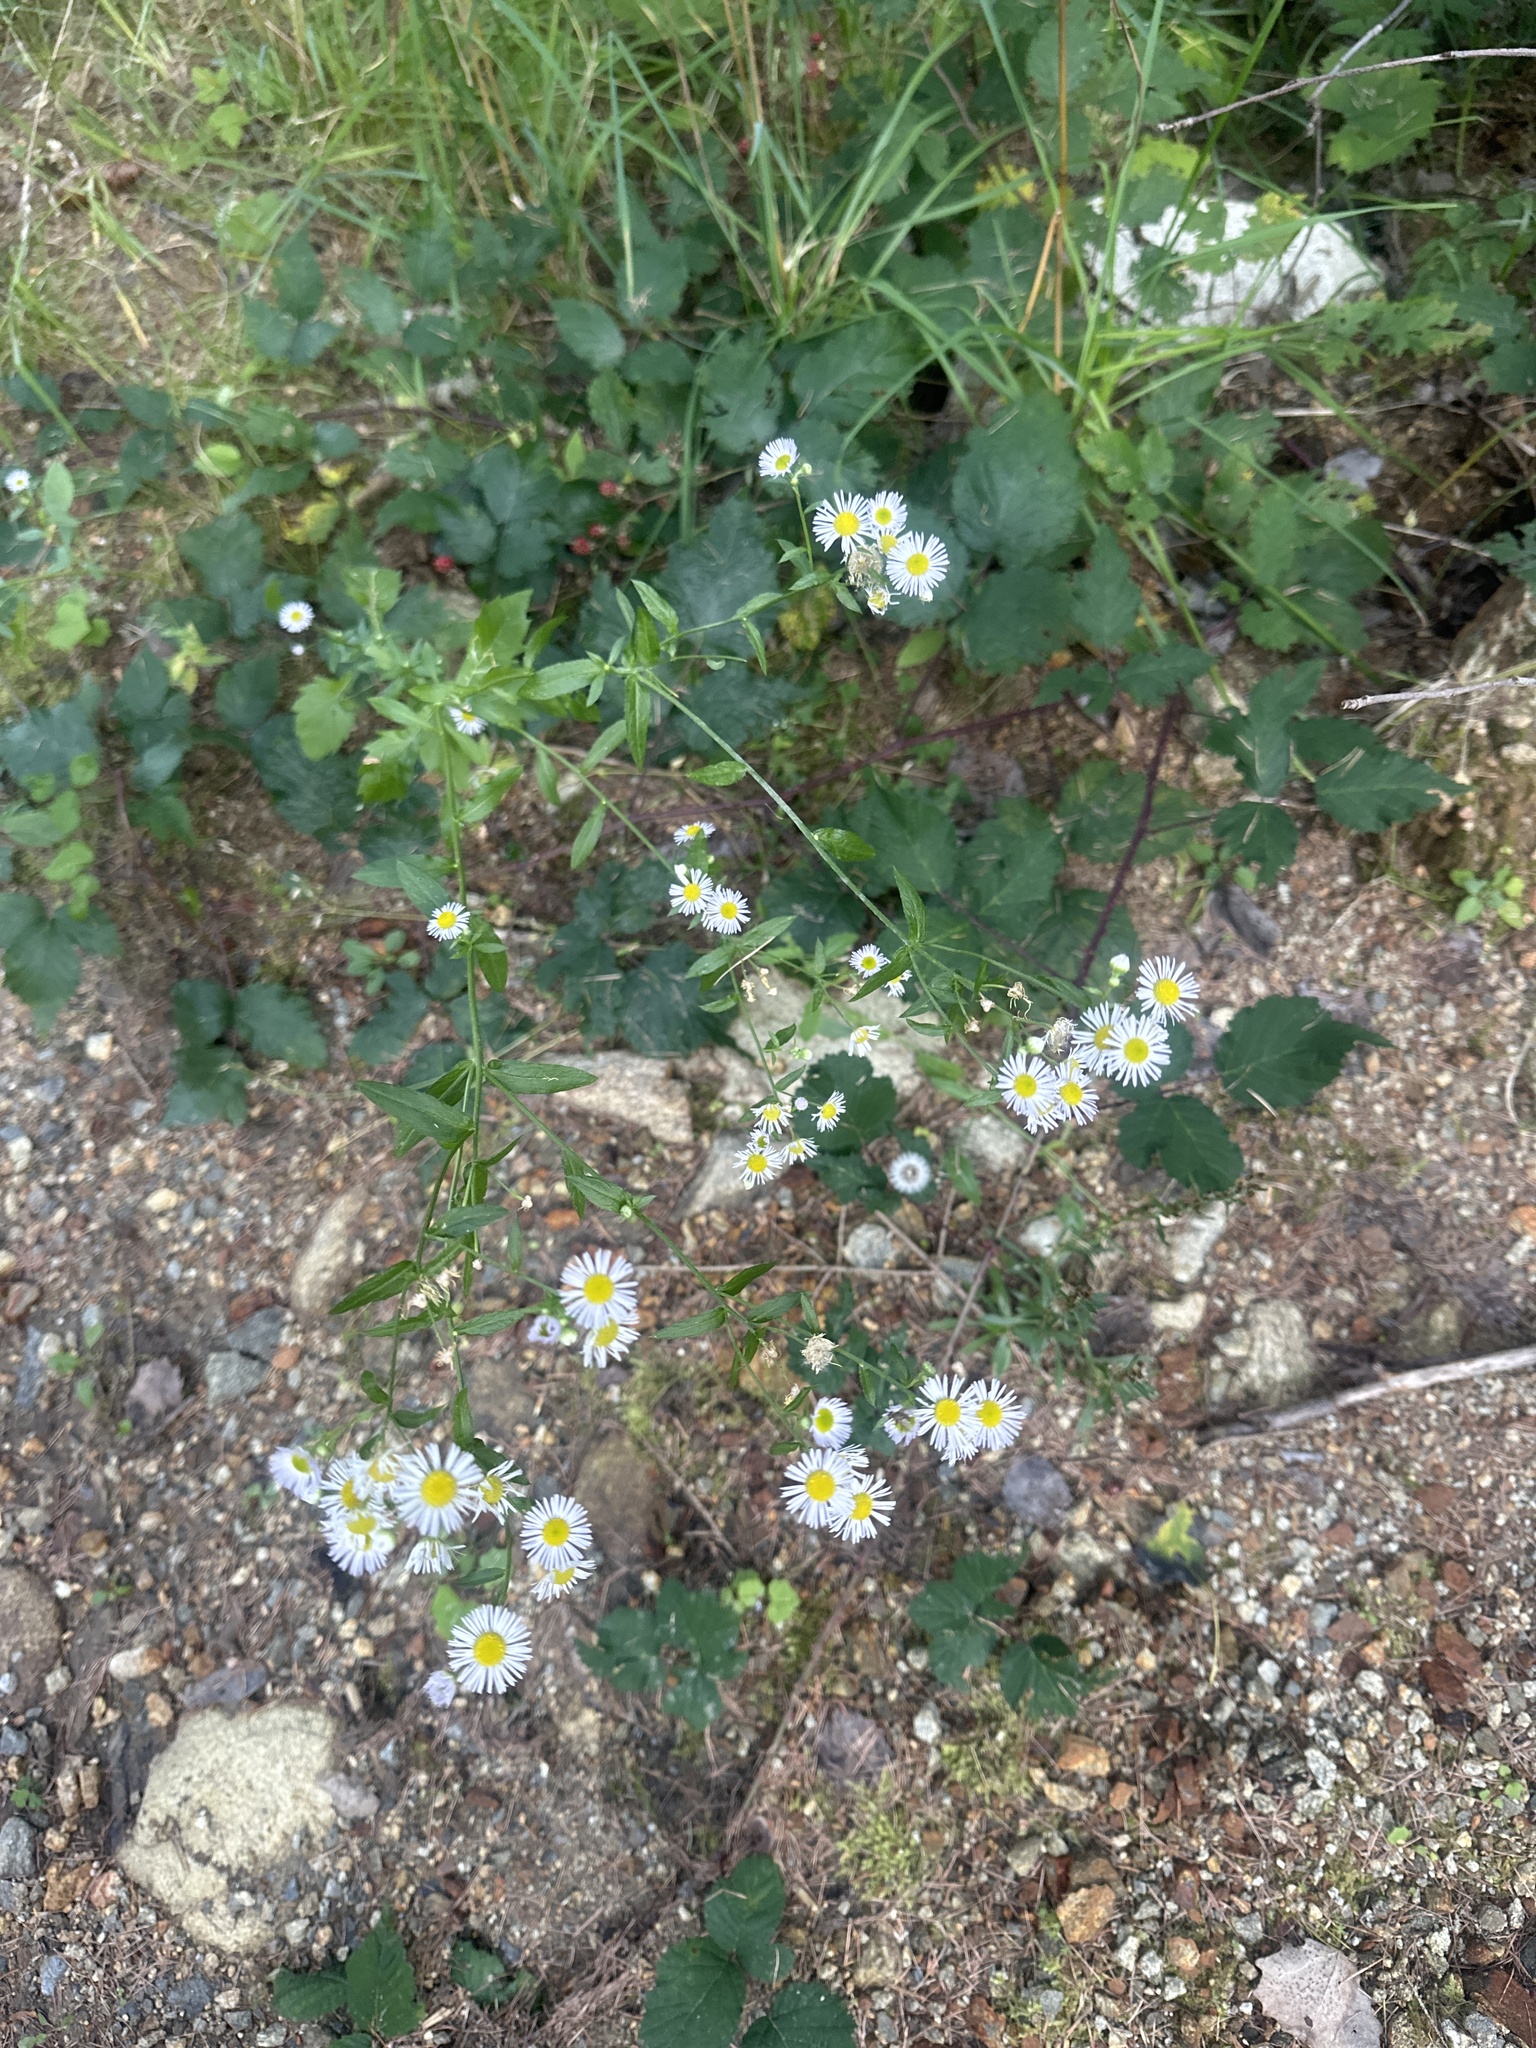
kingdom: Plantae
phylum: Tracheophyta
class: Magnoliopsida
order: Asterales
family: Asteraceae
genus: Erigeron
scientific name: Erigeron annuus
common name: Tall fleabane
